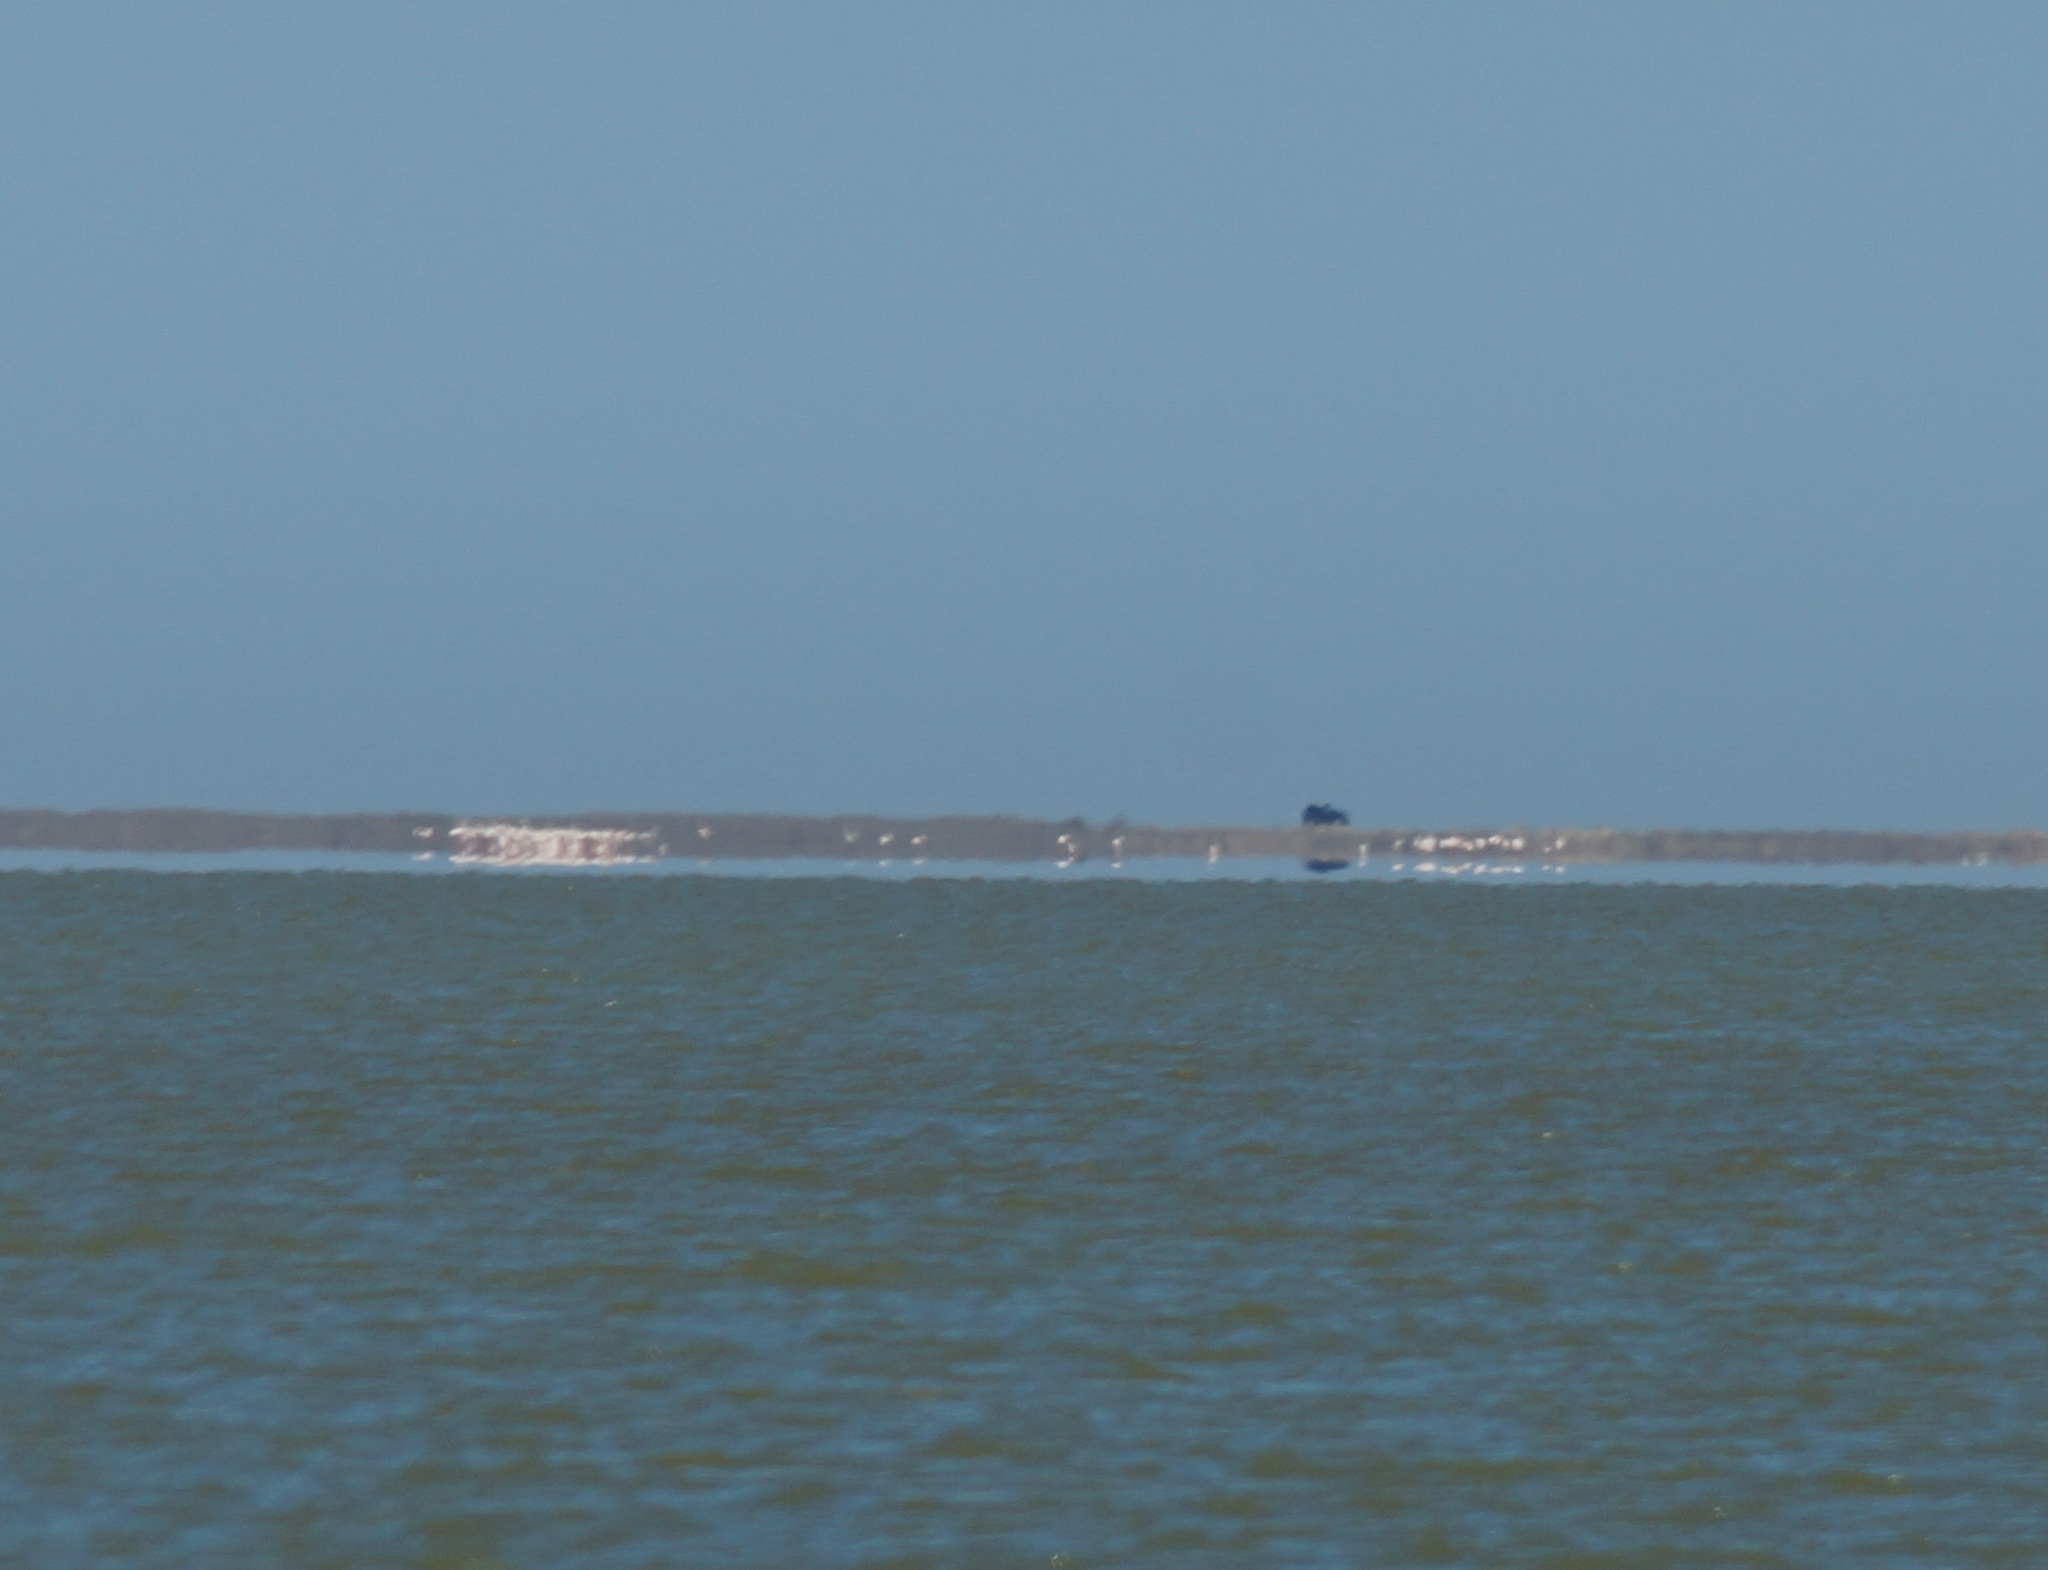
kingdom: Animalia
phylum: Chordata
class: Aves
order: Phoenicopteriformes
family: Phoenicopteridae
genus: Phoenicopterus
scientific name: Phoenicopterus roseus
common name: Greater flamingo
